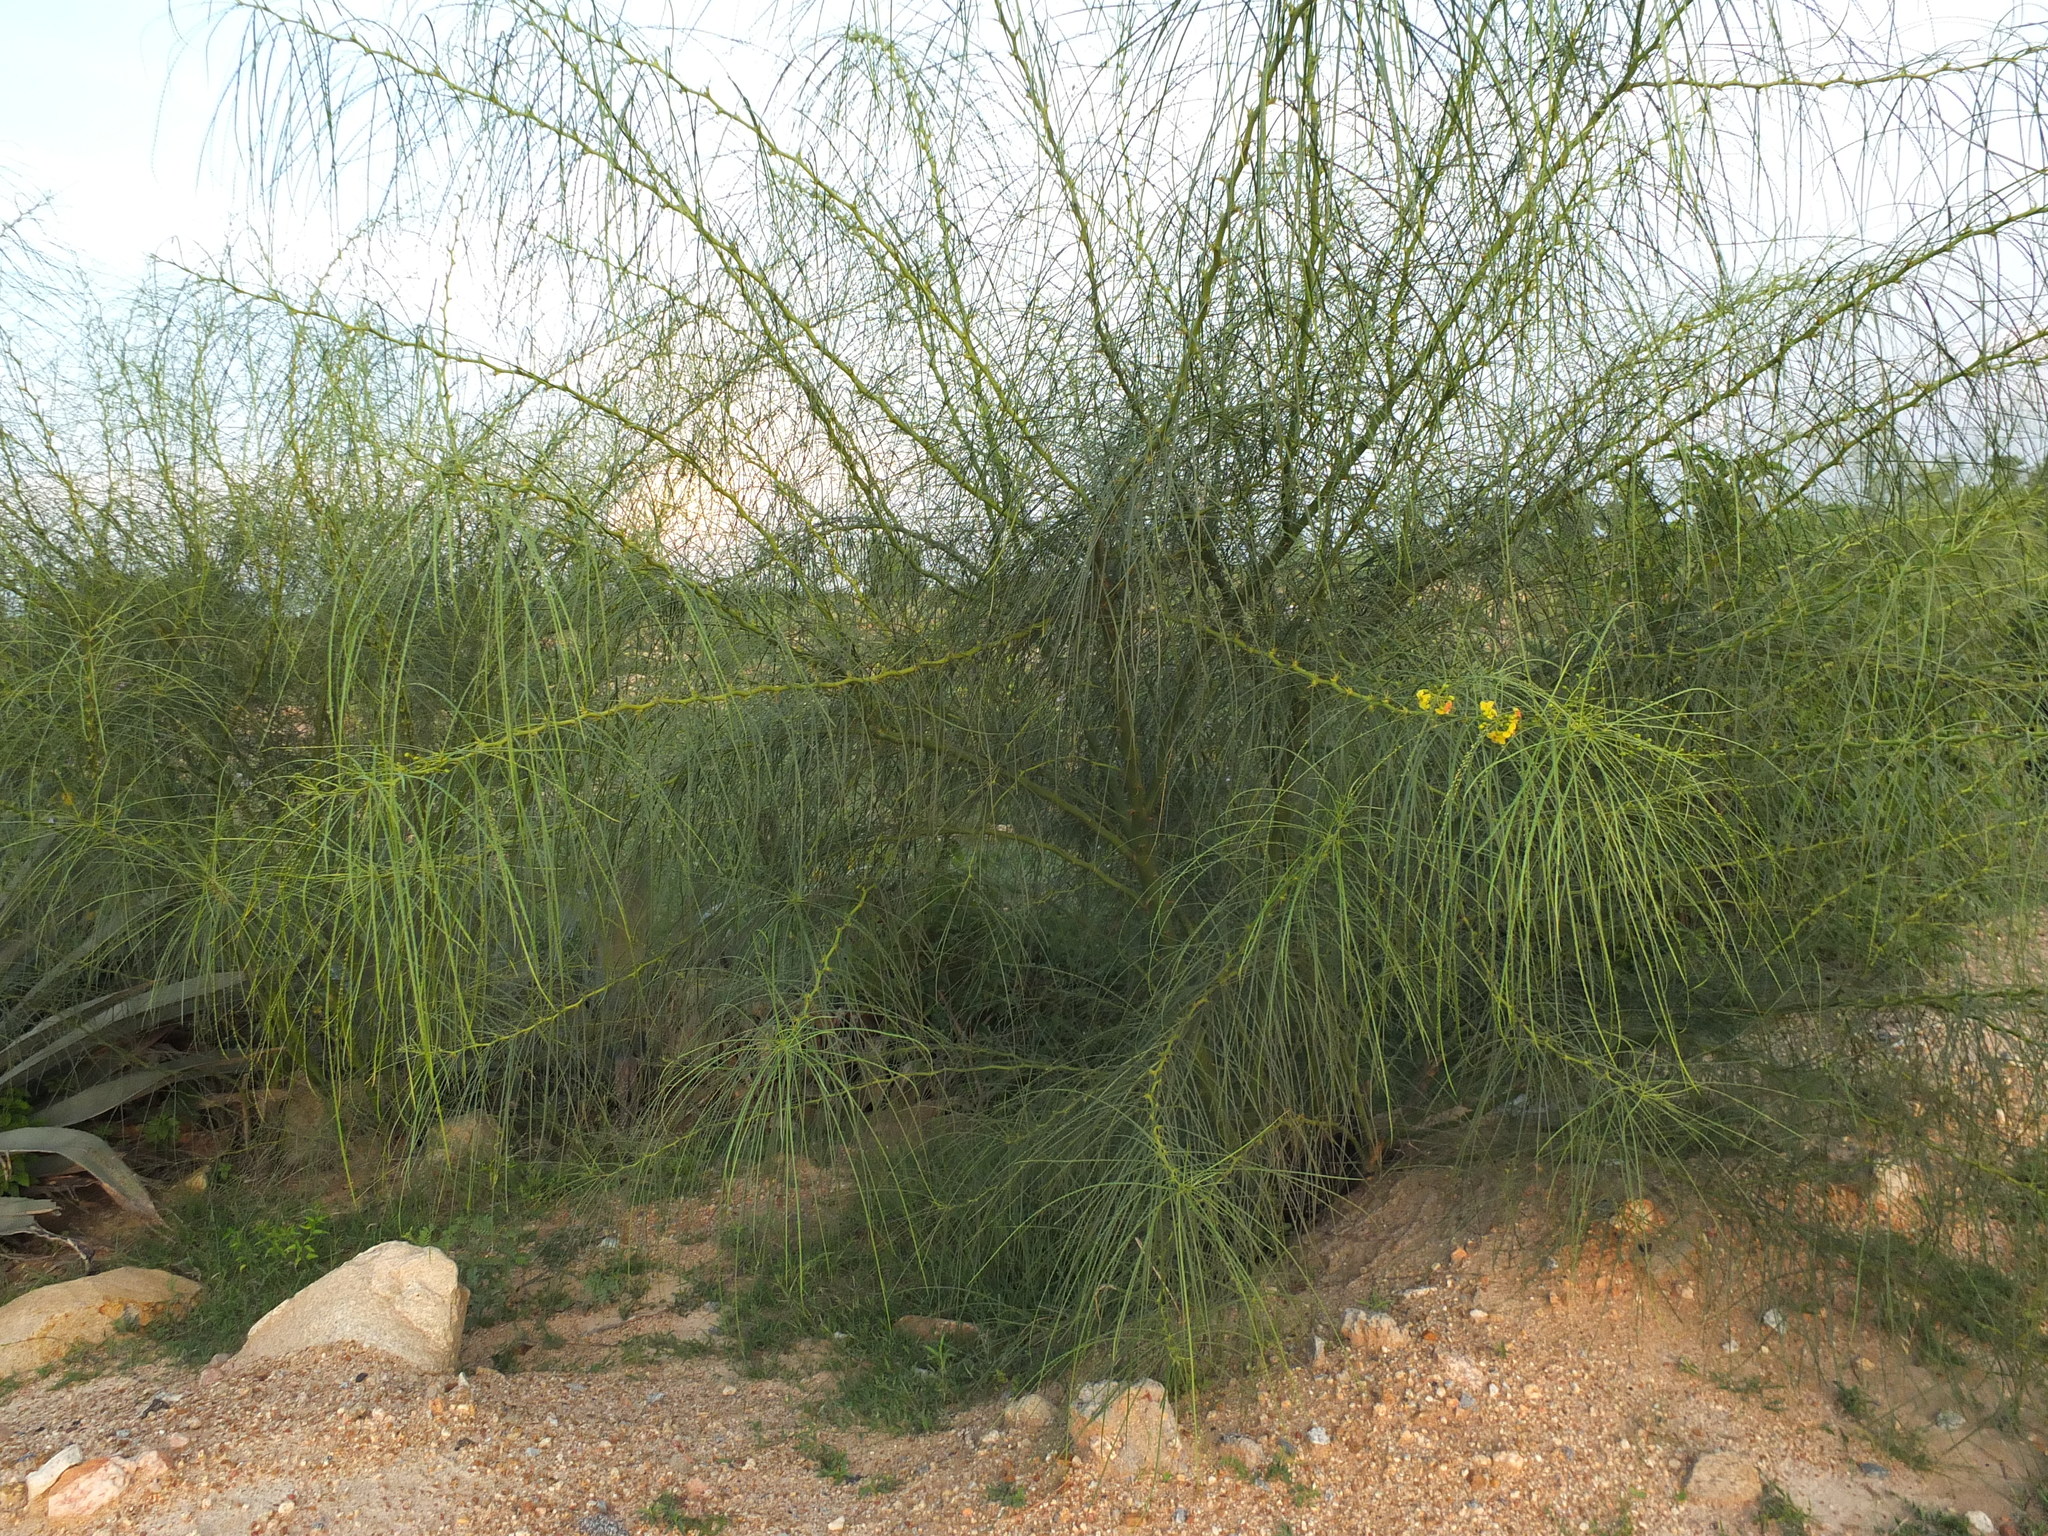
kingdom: Plantae
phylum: Tracheophyta
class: Magnoliopsida
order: Fabales
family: Fabaceae
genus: Parkinsonia
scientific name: Parkinsonia aculeata
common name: Jerusalem thorn
